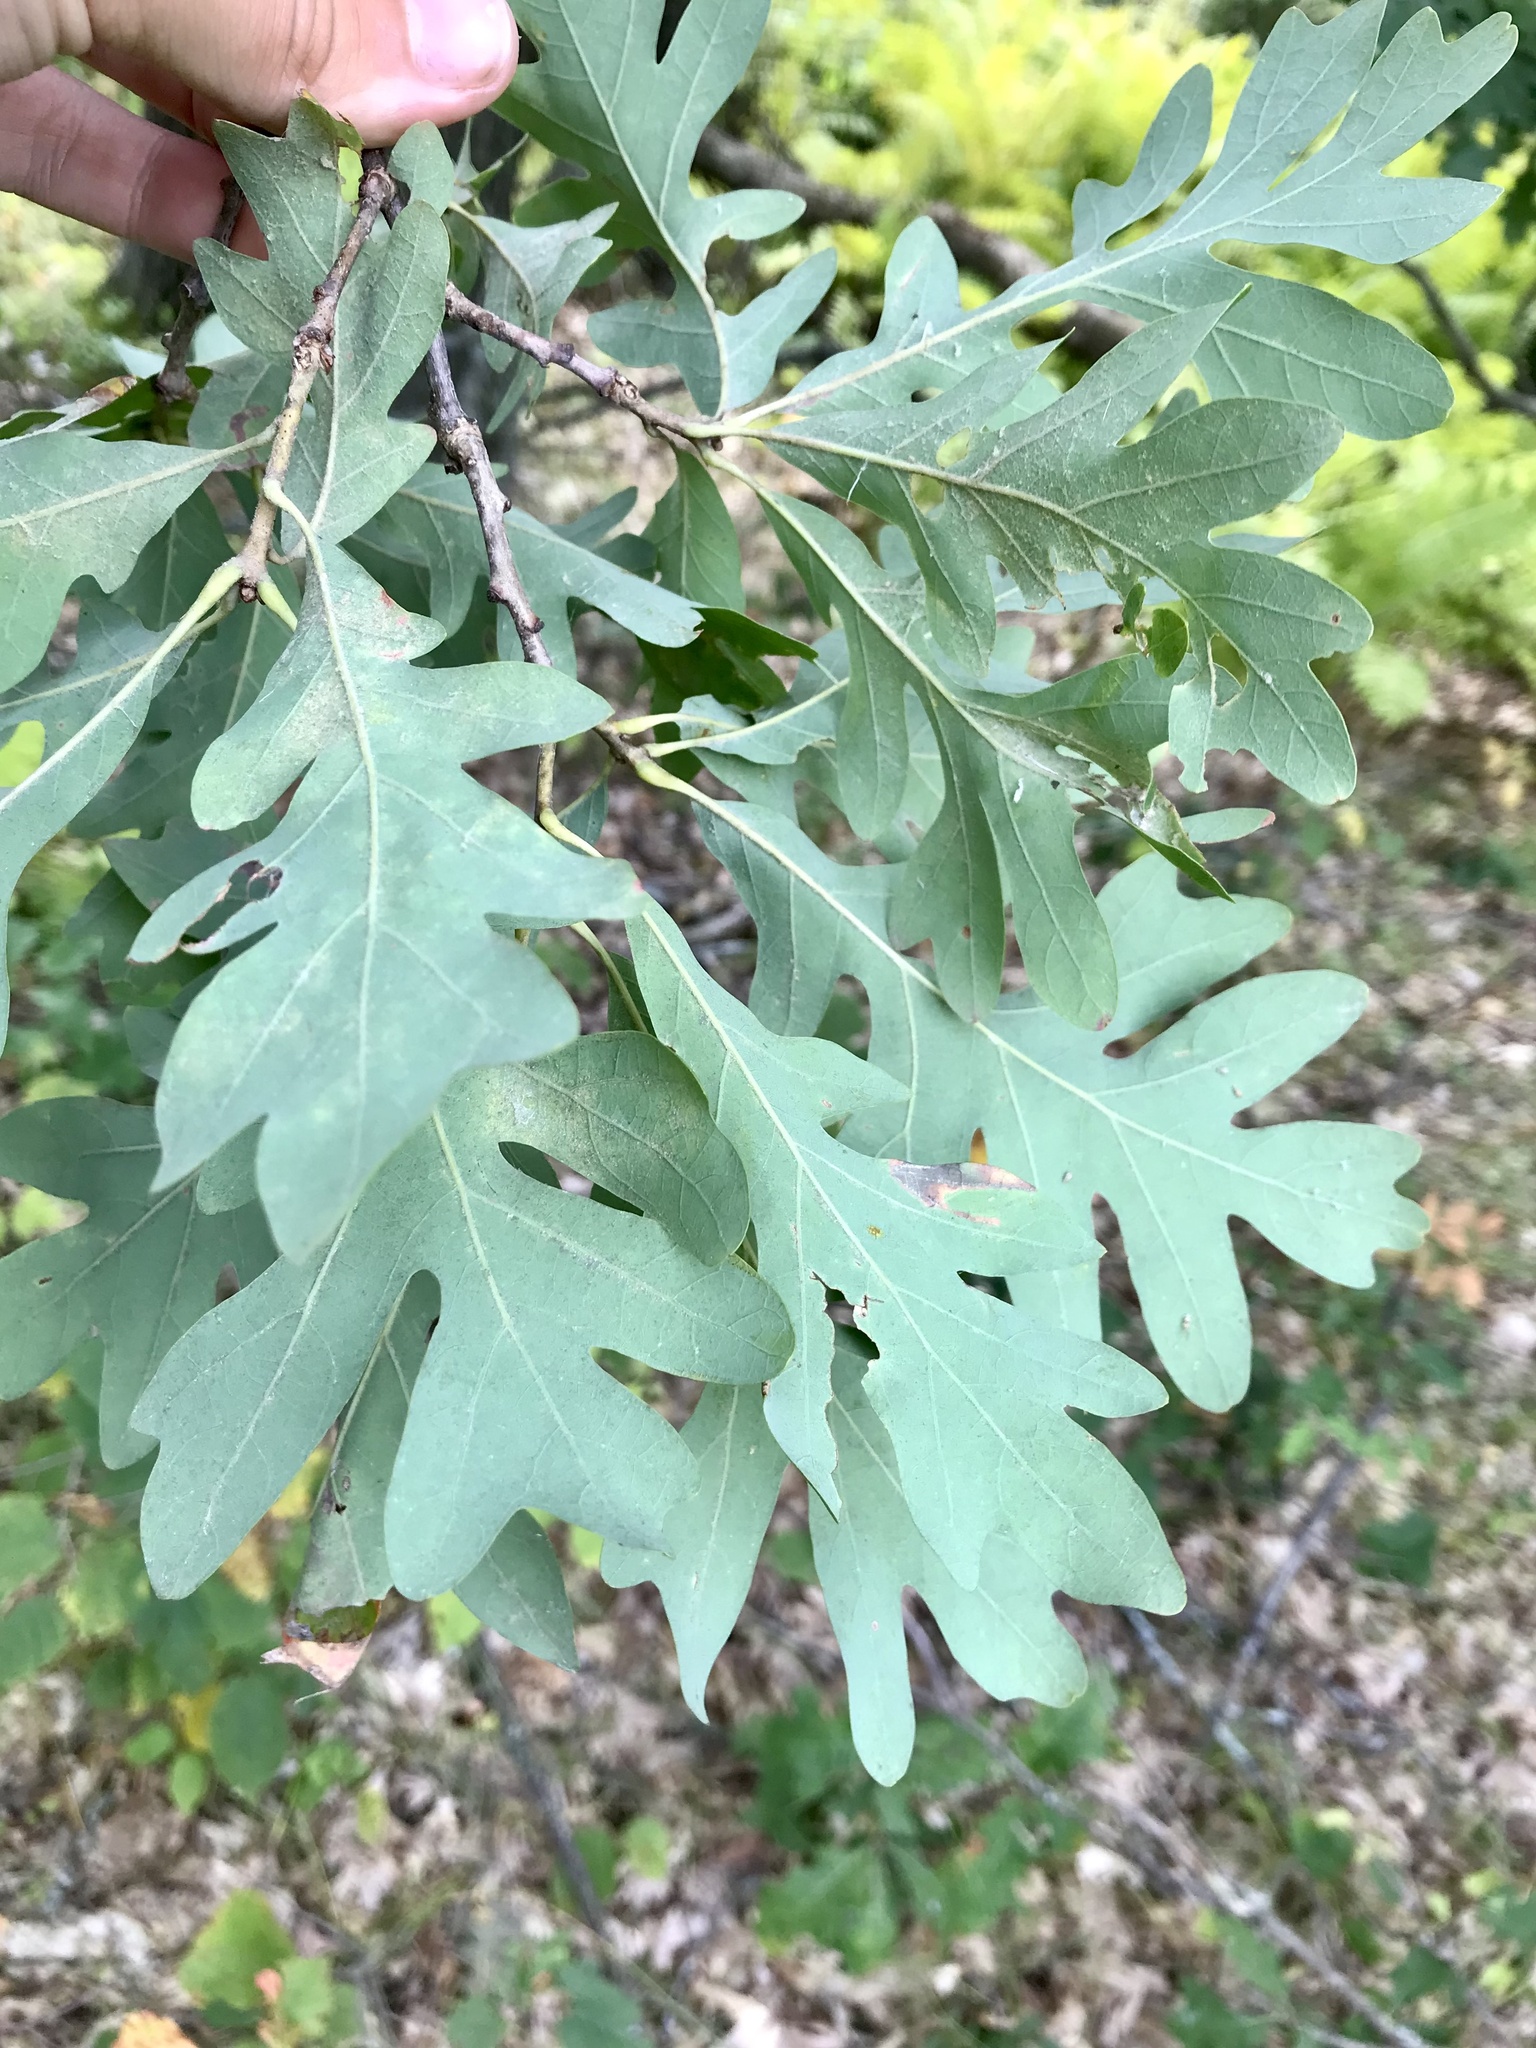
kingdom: Plantae
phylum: Tracheophyta
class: Magnoliopsida
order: Fagales
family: Fagaceae
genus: Quercus
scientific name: Quercus alba
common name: White oak
